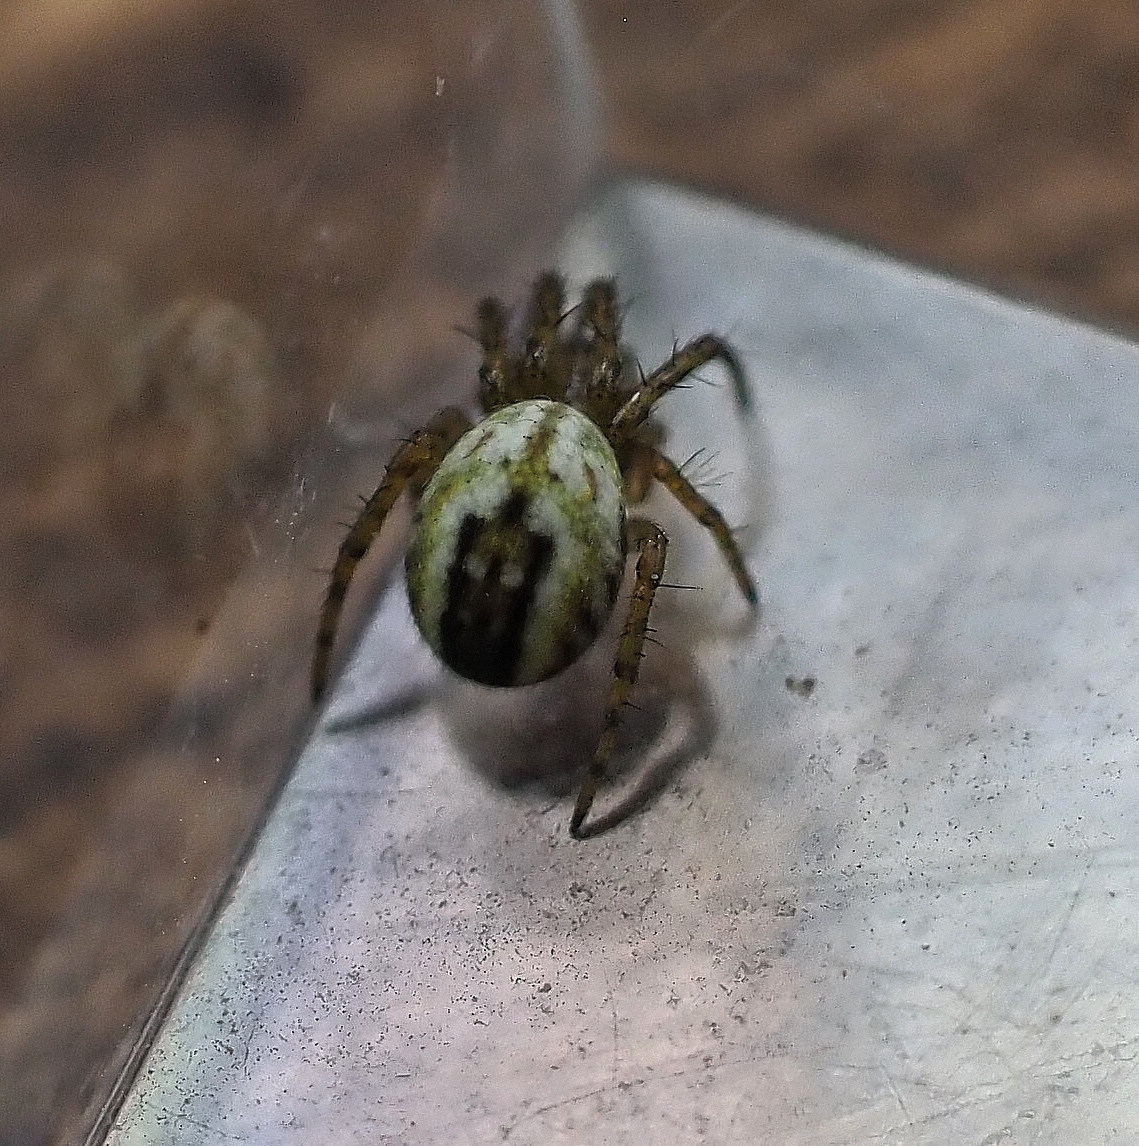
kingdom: Animalia
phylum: Arthropoda
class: Arachnida
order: Araneae
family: Araneidae
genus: Mangora
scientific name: Mangora acalypha
